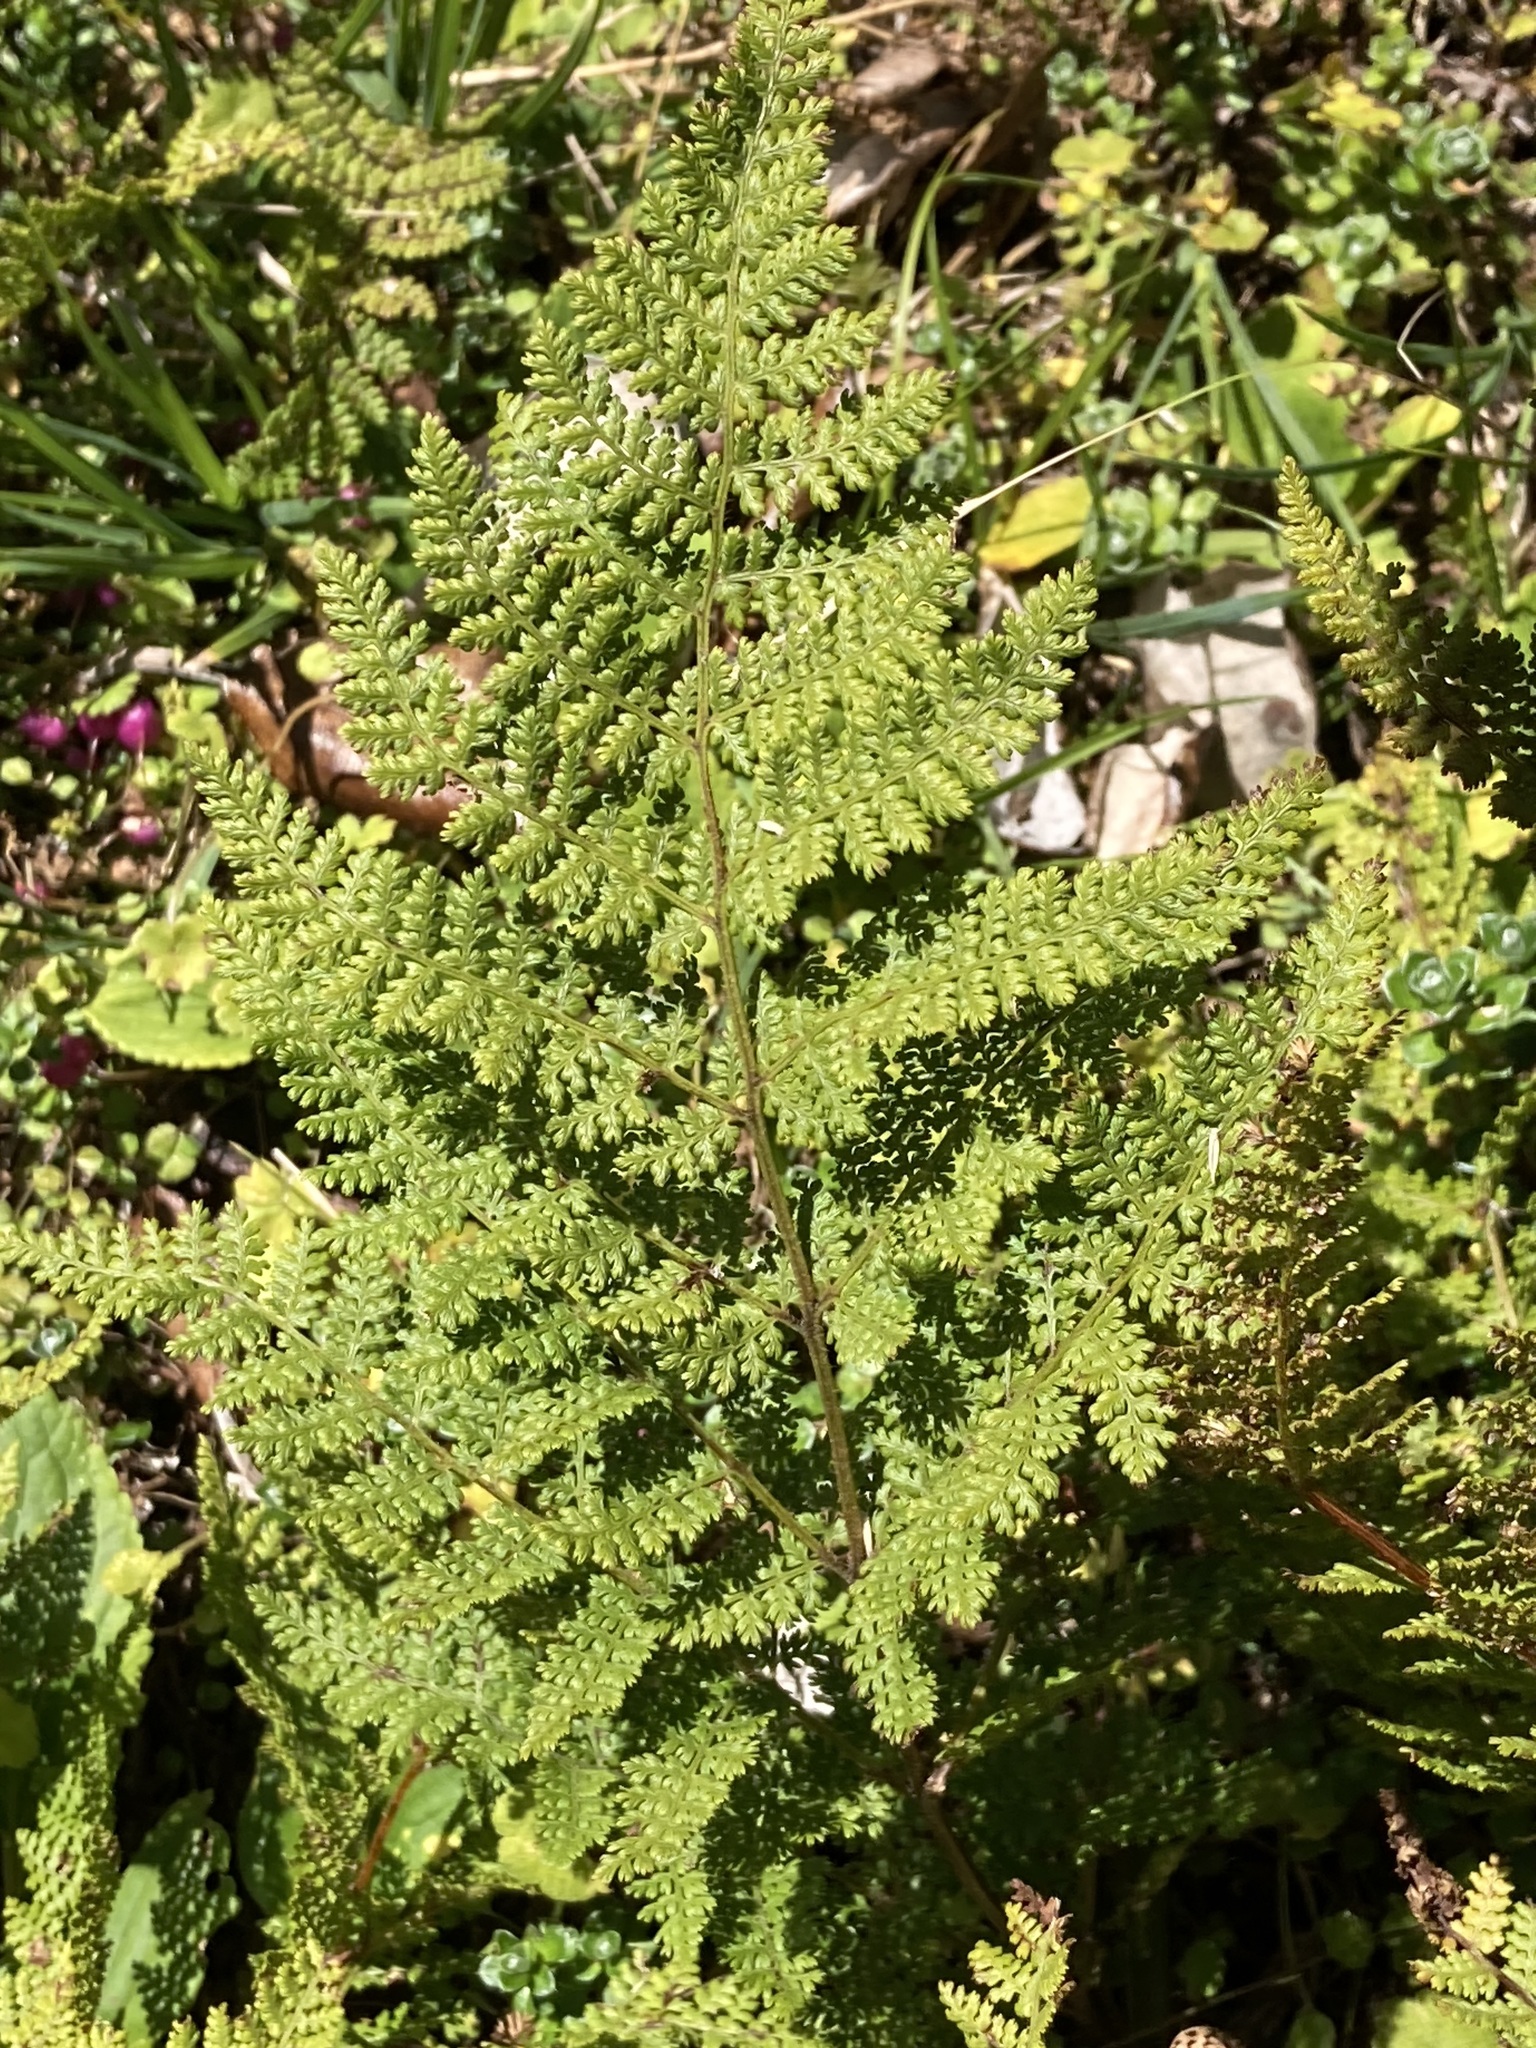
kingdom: Plantae
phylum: Tracheophyta
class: Polypodiopsida
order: Polypodiales
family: Dennstaedtiaceae
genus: Hypolepis
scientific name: Hypolepis millefolium
